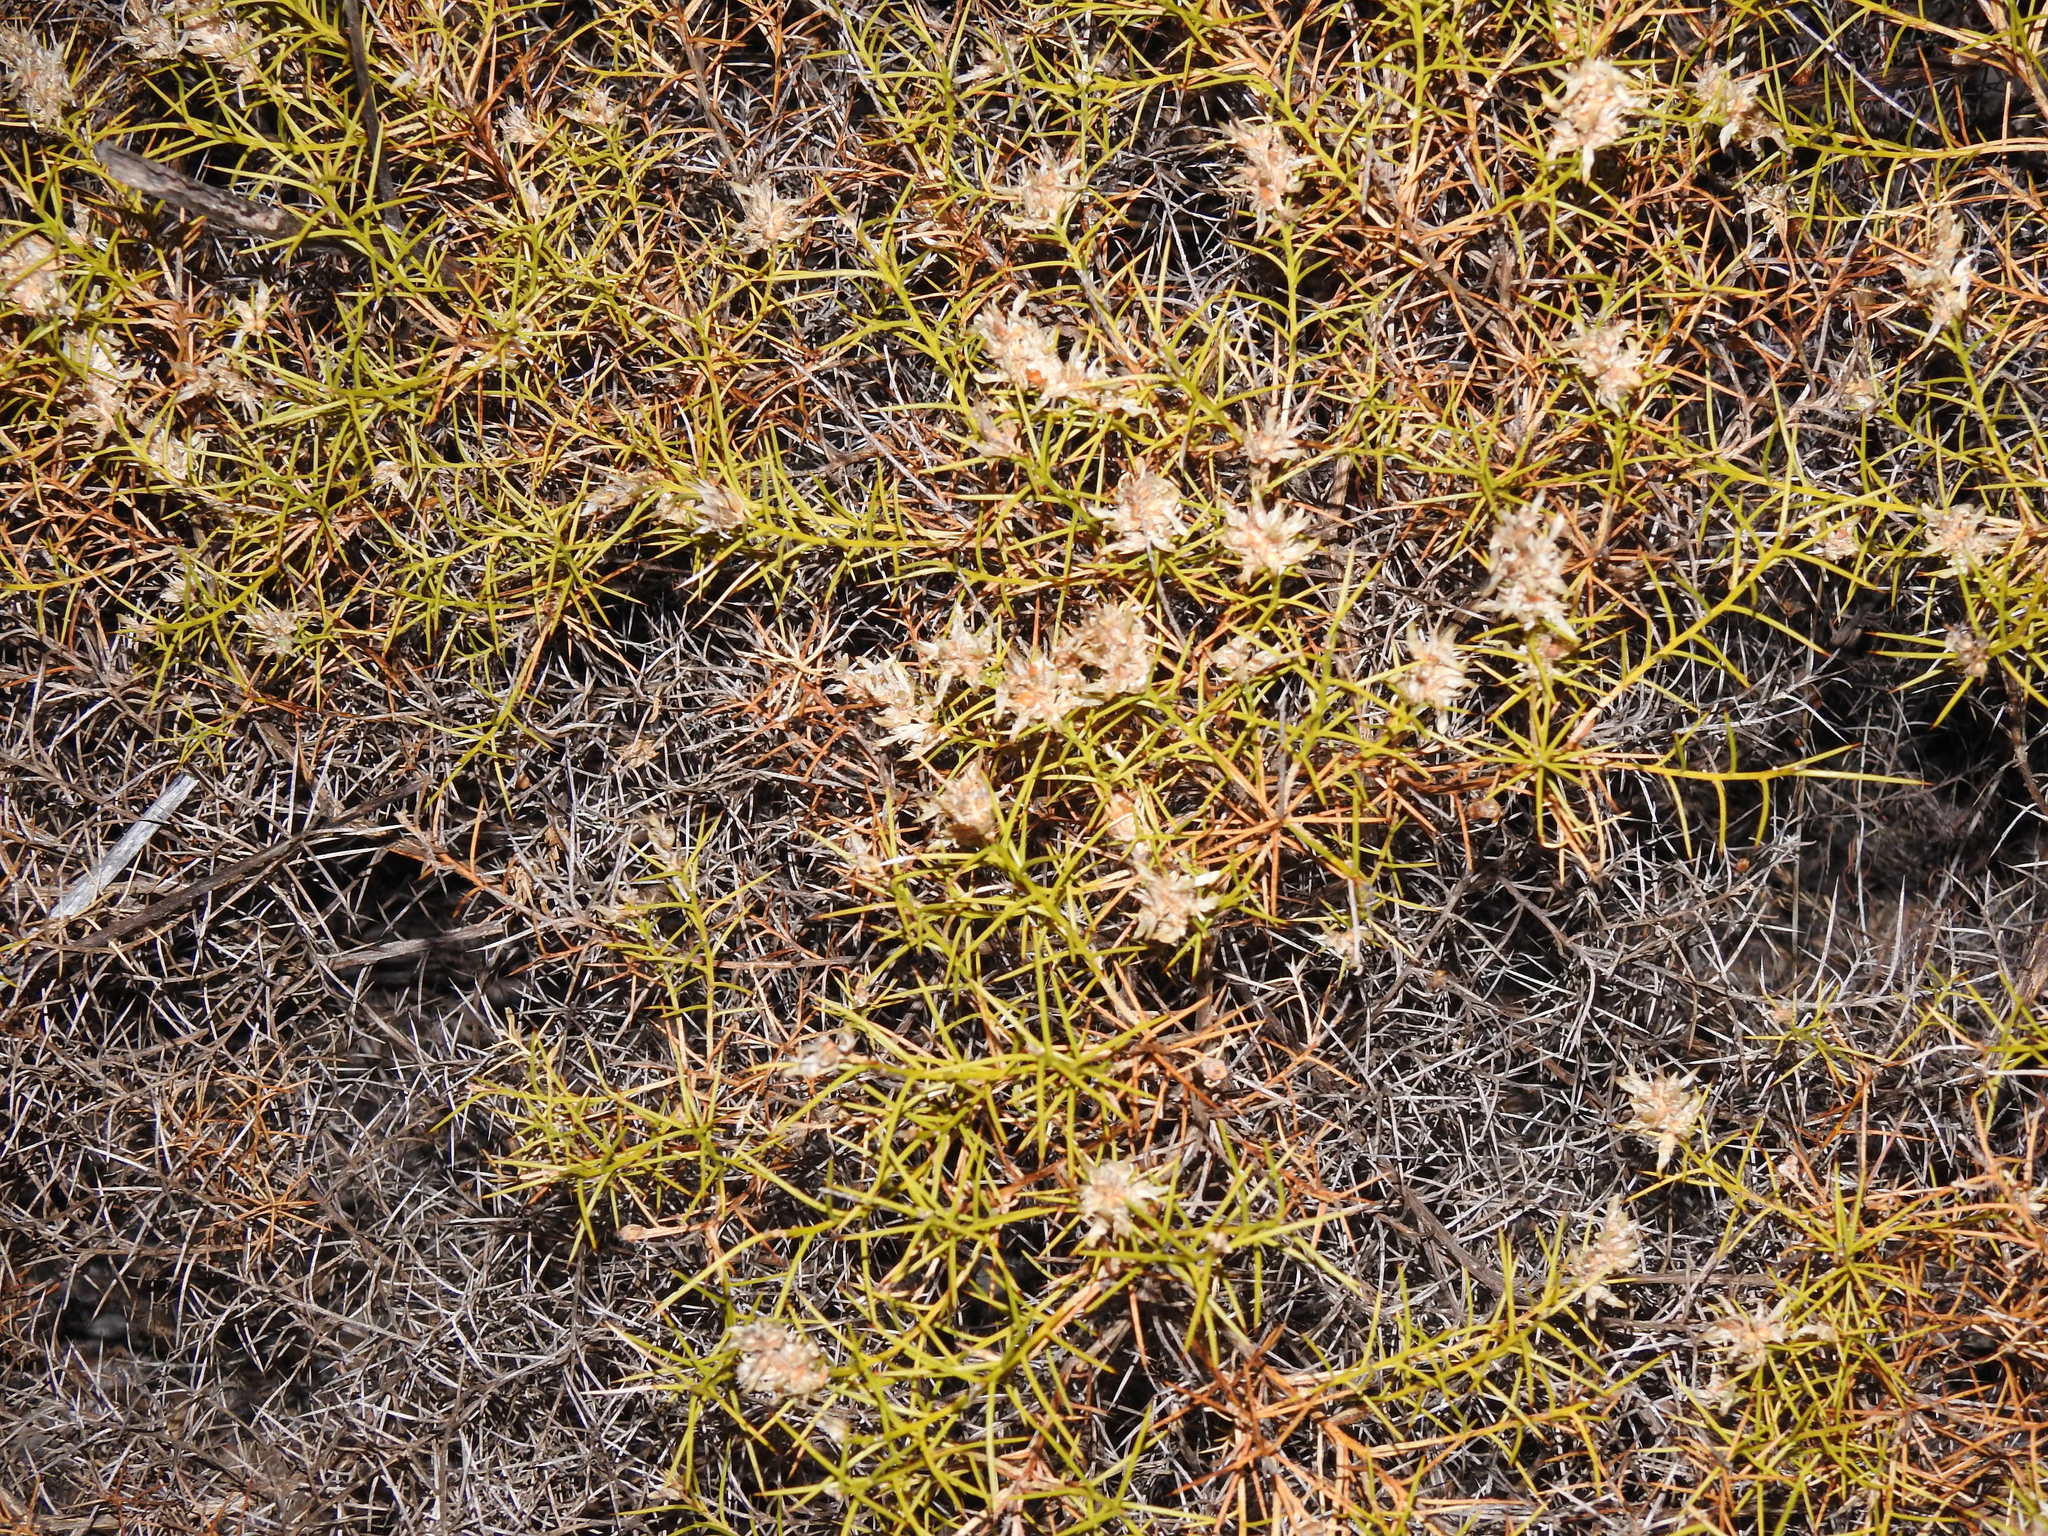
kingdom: Plantae
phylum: Tracheophyta
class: Magnoliopsida
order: Fabales
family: Fabaceae
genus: Genista
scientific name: Genista hirsuta
